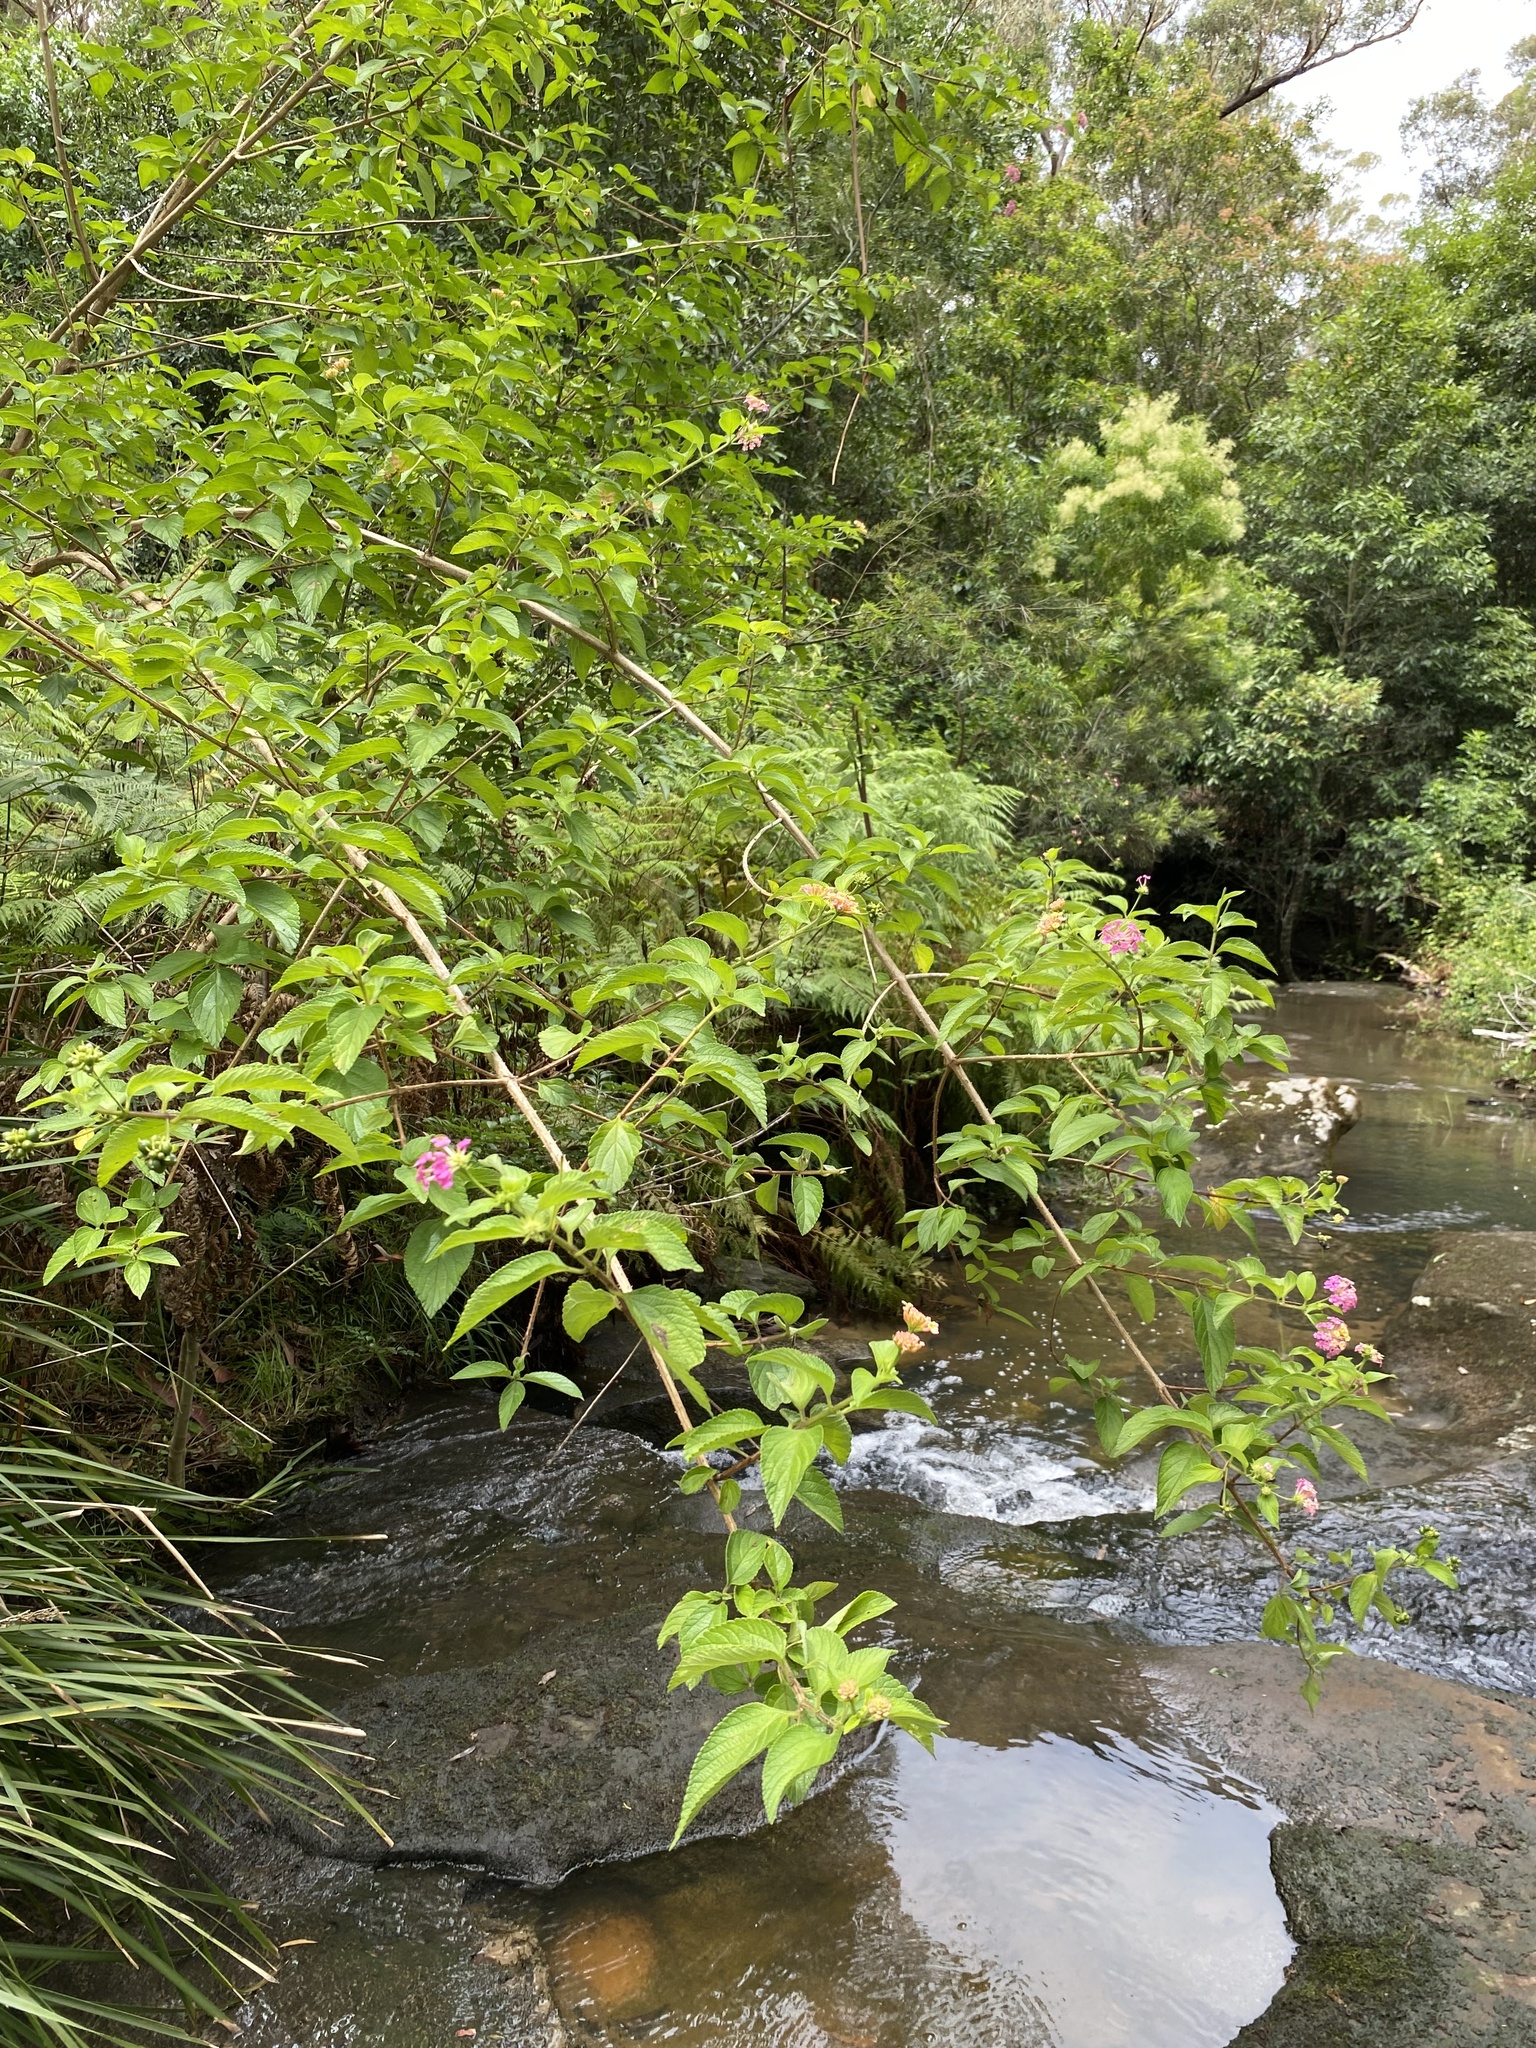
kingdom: Plantae
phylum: Tracheophyta
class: Magnoliopsida
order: Lamiales
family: Verbenaceae
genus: Lantana
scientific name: Lantana camara
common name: Lantana
